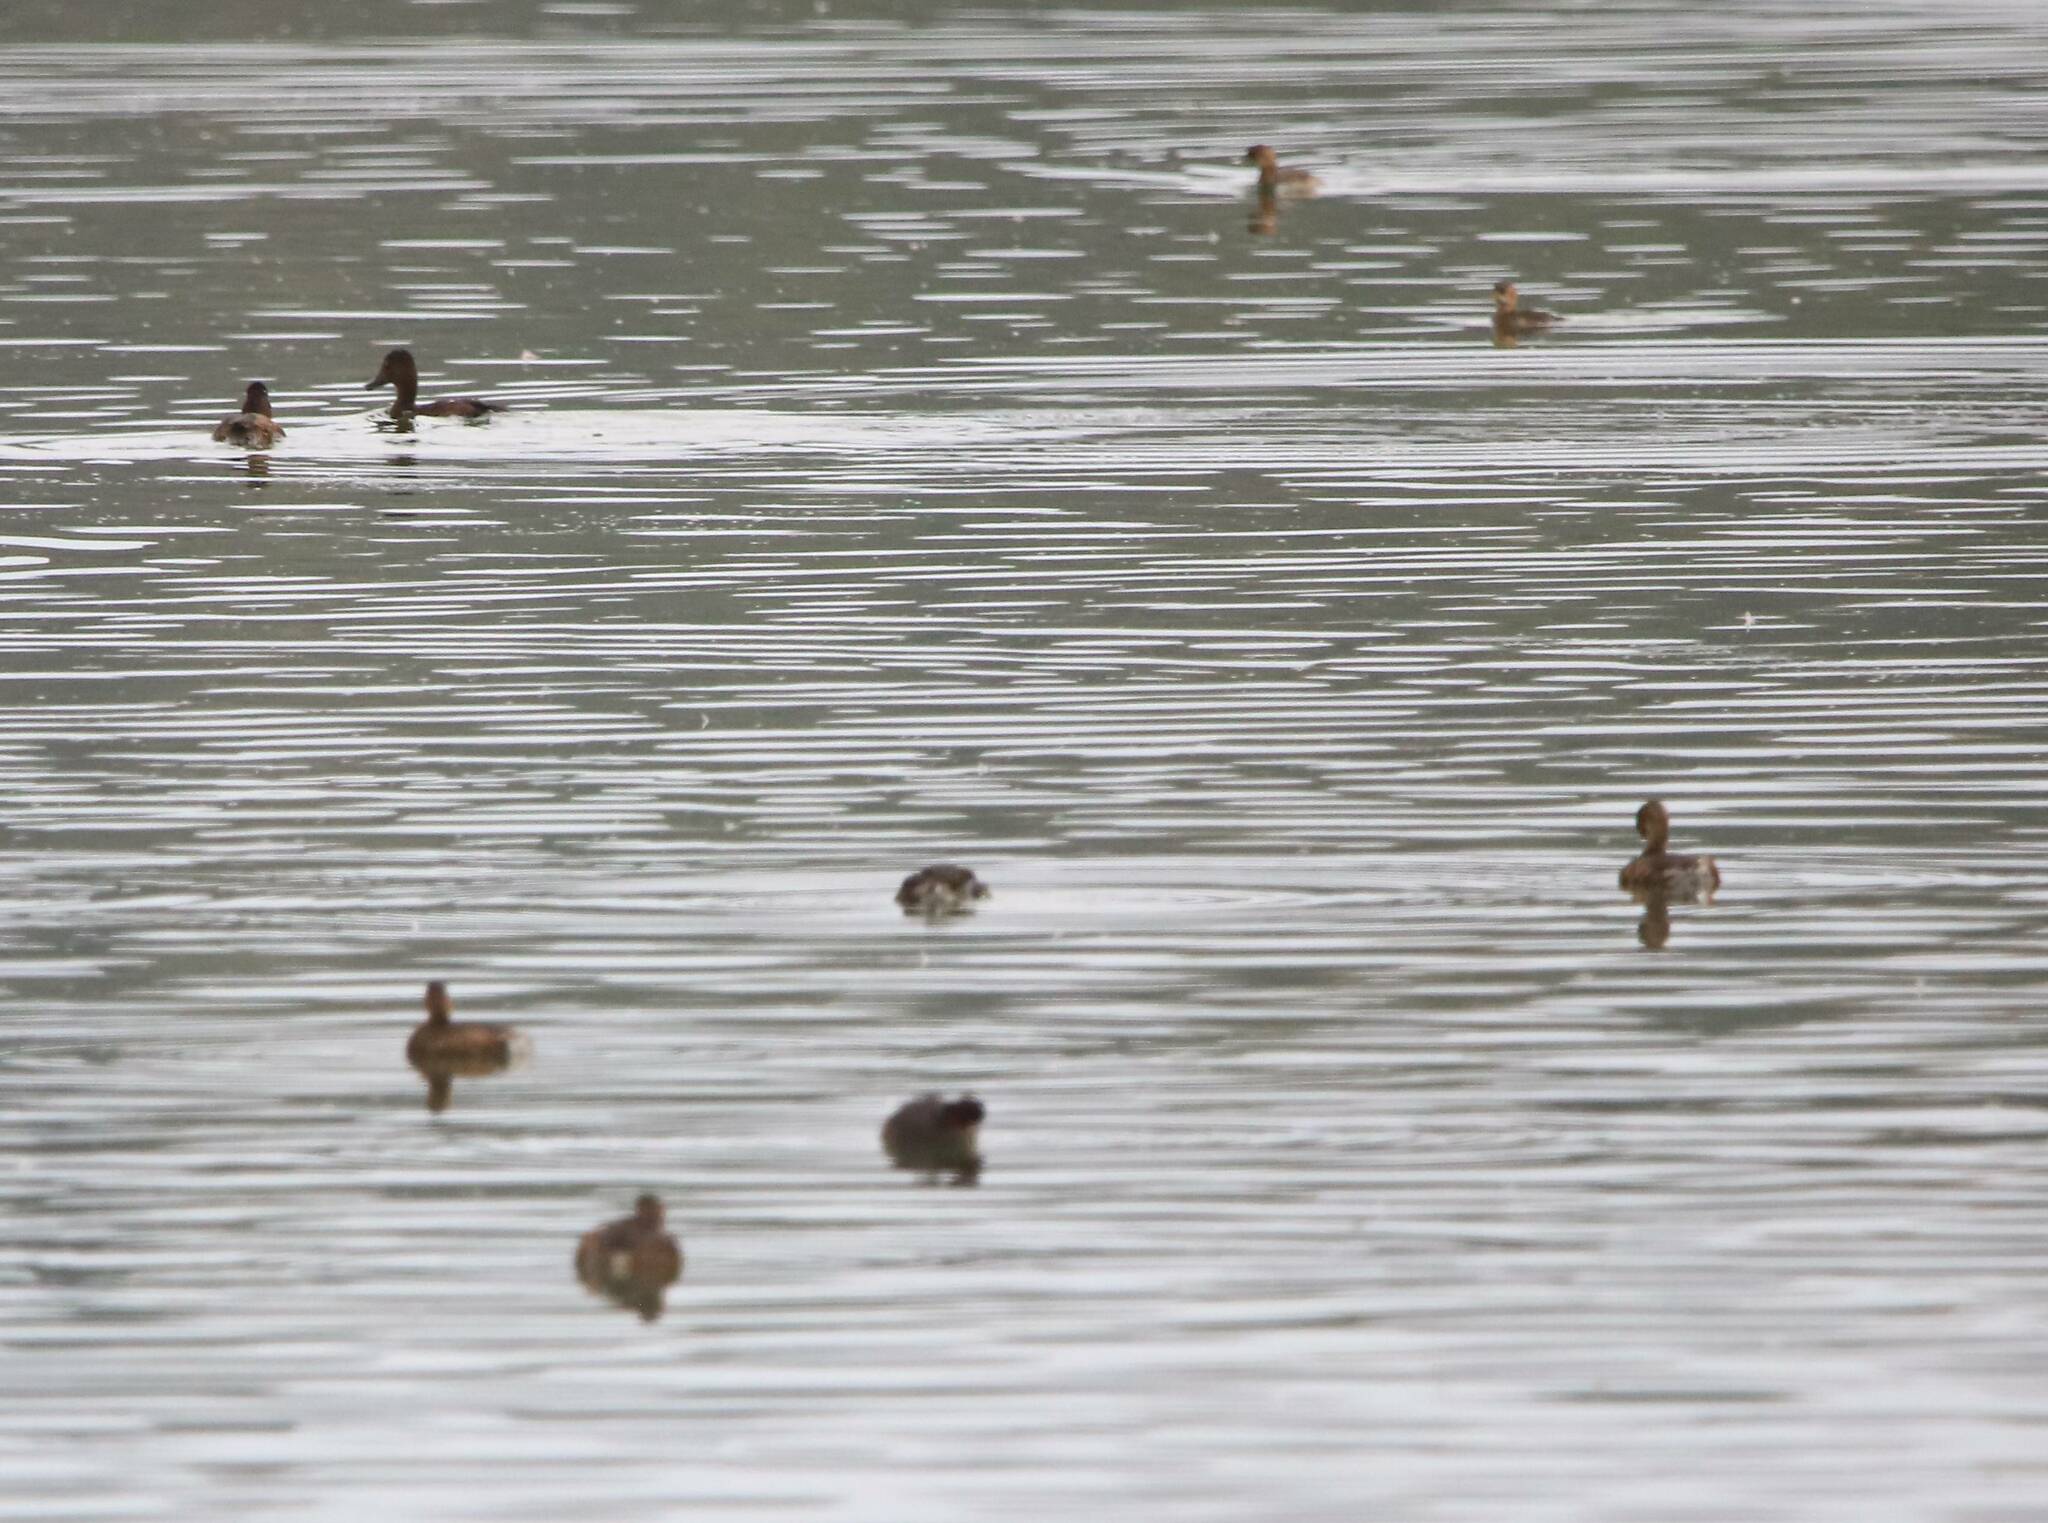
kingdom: Animalia
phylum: Chordata
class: Aves
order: Podicipediformes
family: Podicipedidae
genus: Tachybaptus
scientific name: Tachybaptus ruficollis
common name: Little grebe
